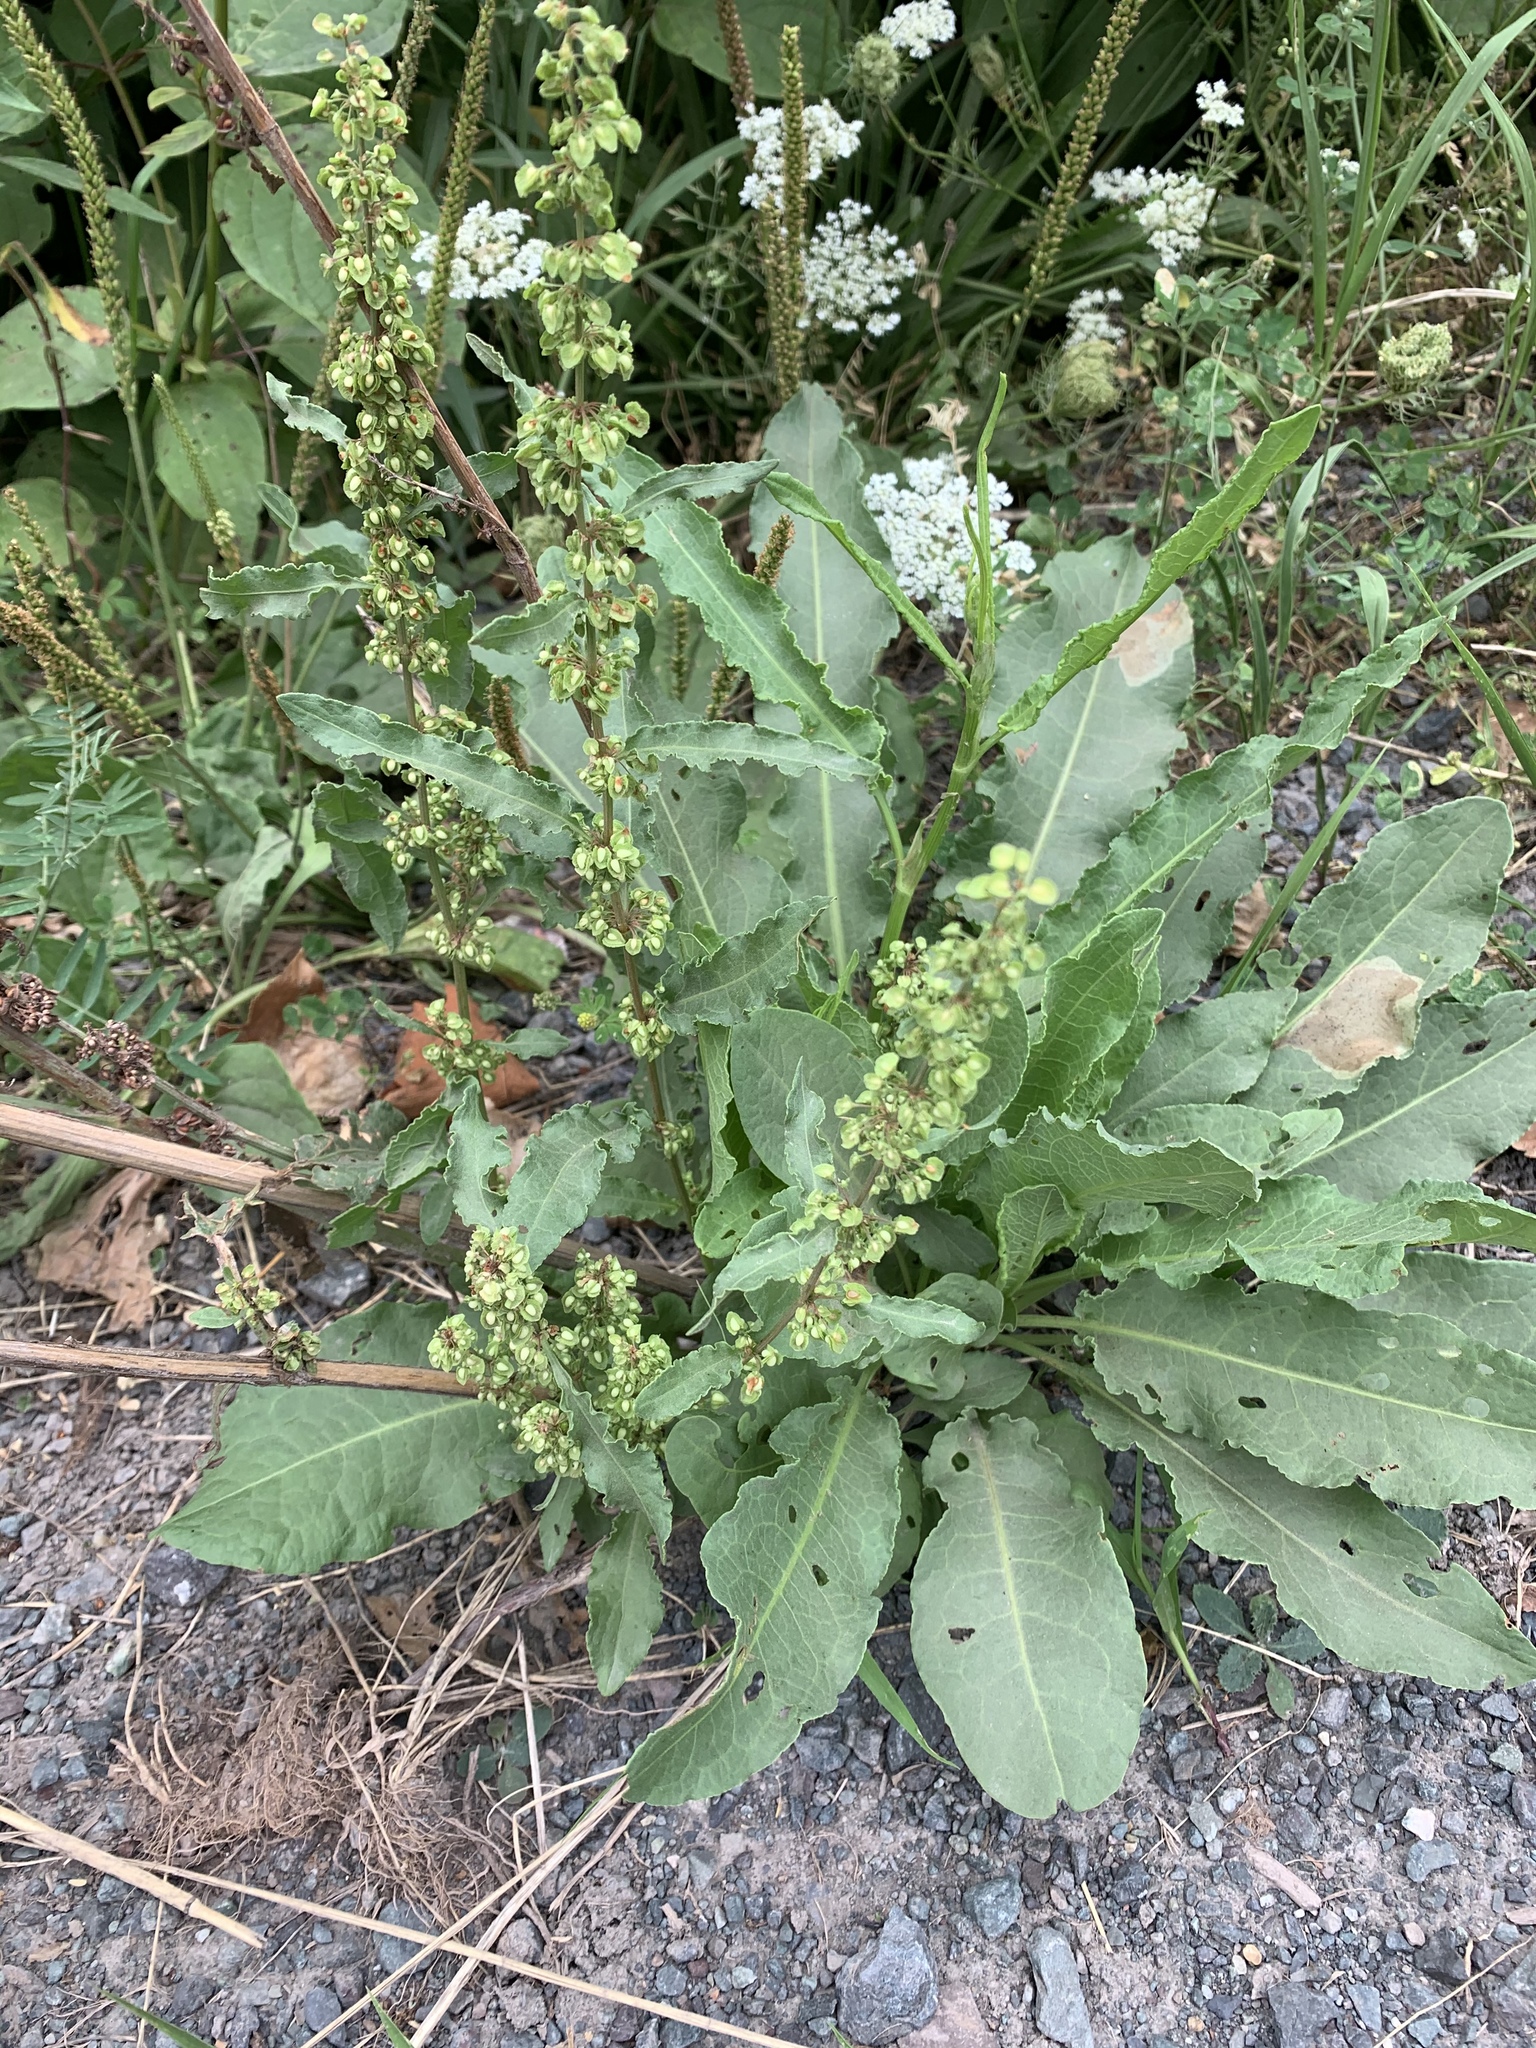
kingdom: Plantae
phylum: Tracheophyta
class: Magnoliopsida
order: Caryophyllales
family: Polygonaceae
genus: Rumex
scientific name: Rumex crispus
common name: Curled dock
